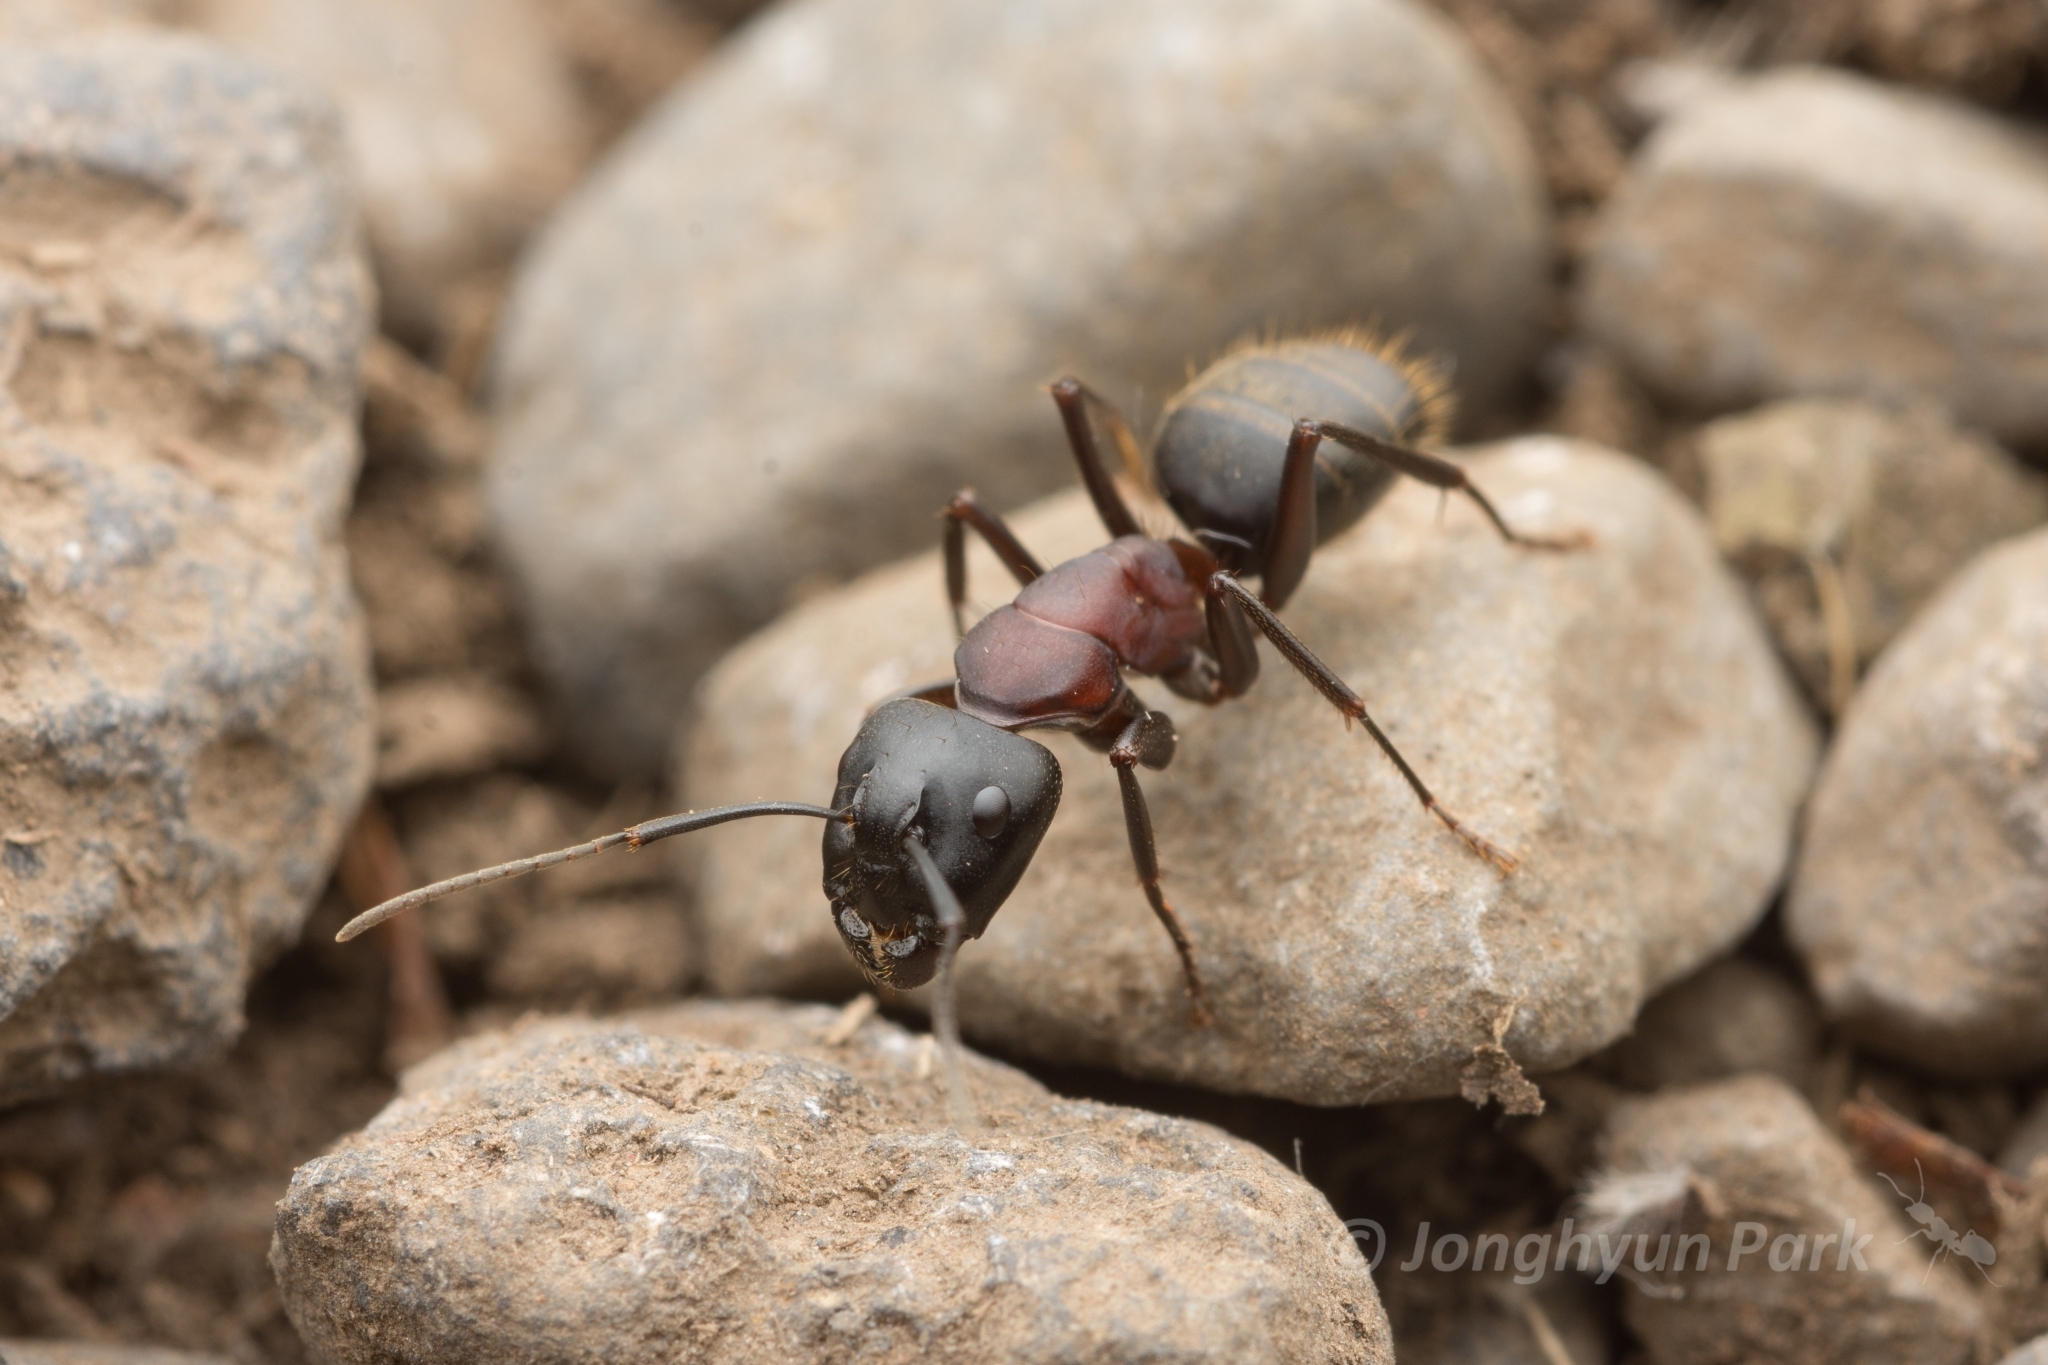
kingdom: Animalia
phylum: Arthropoda
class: Insecta
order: Hymenoptera
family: Formicidae
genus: Camponotus
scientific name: Camponotus atrox
